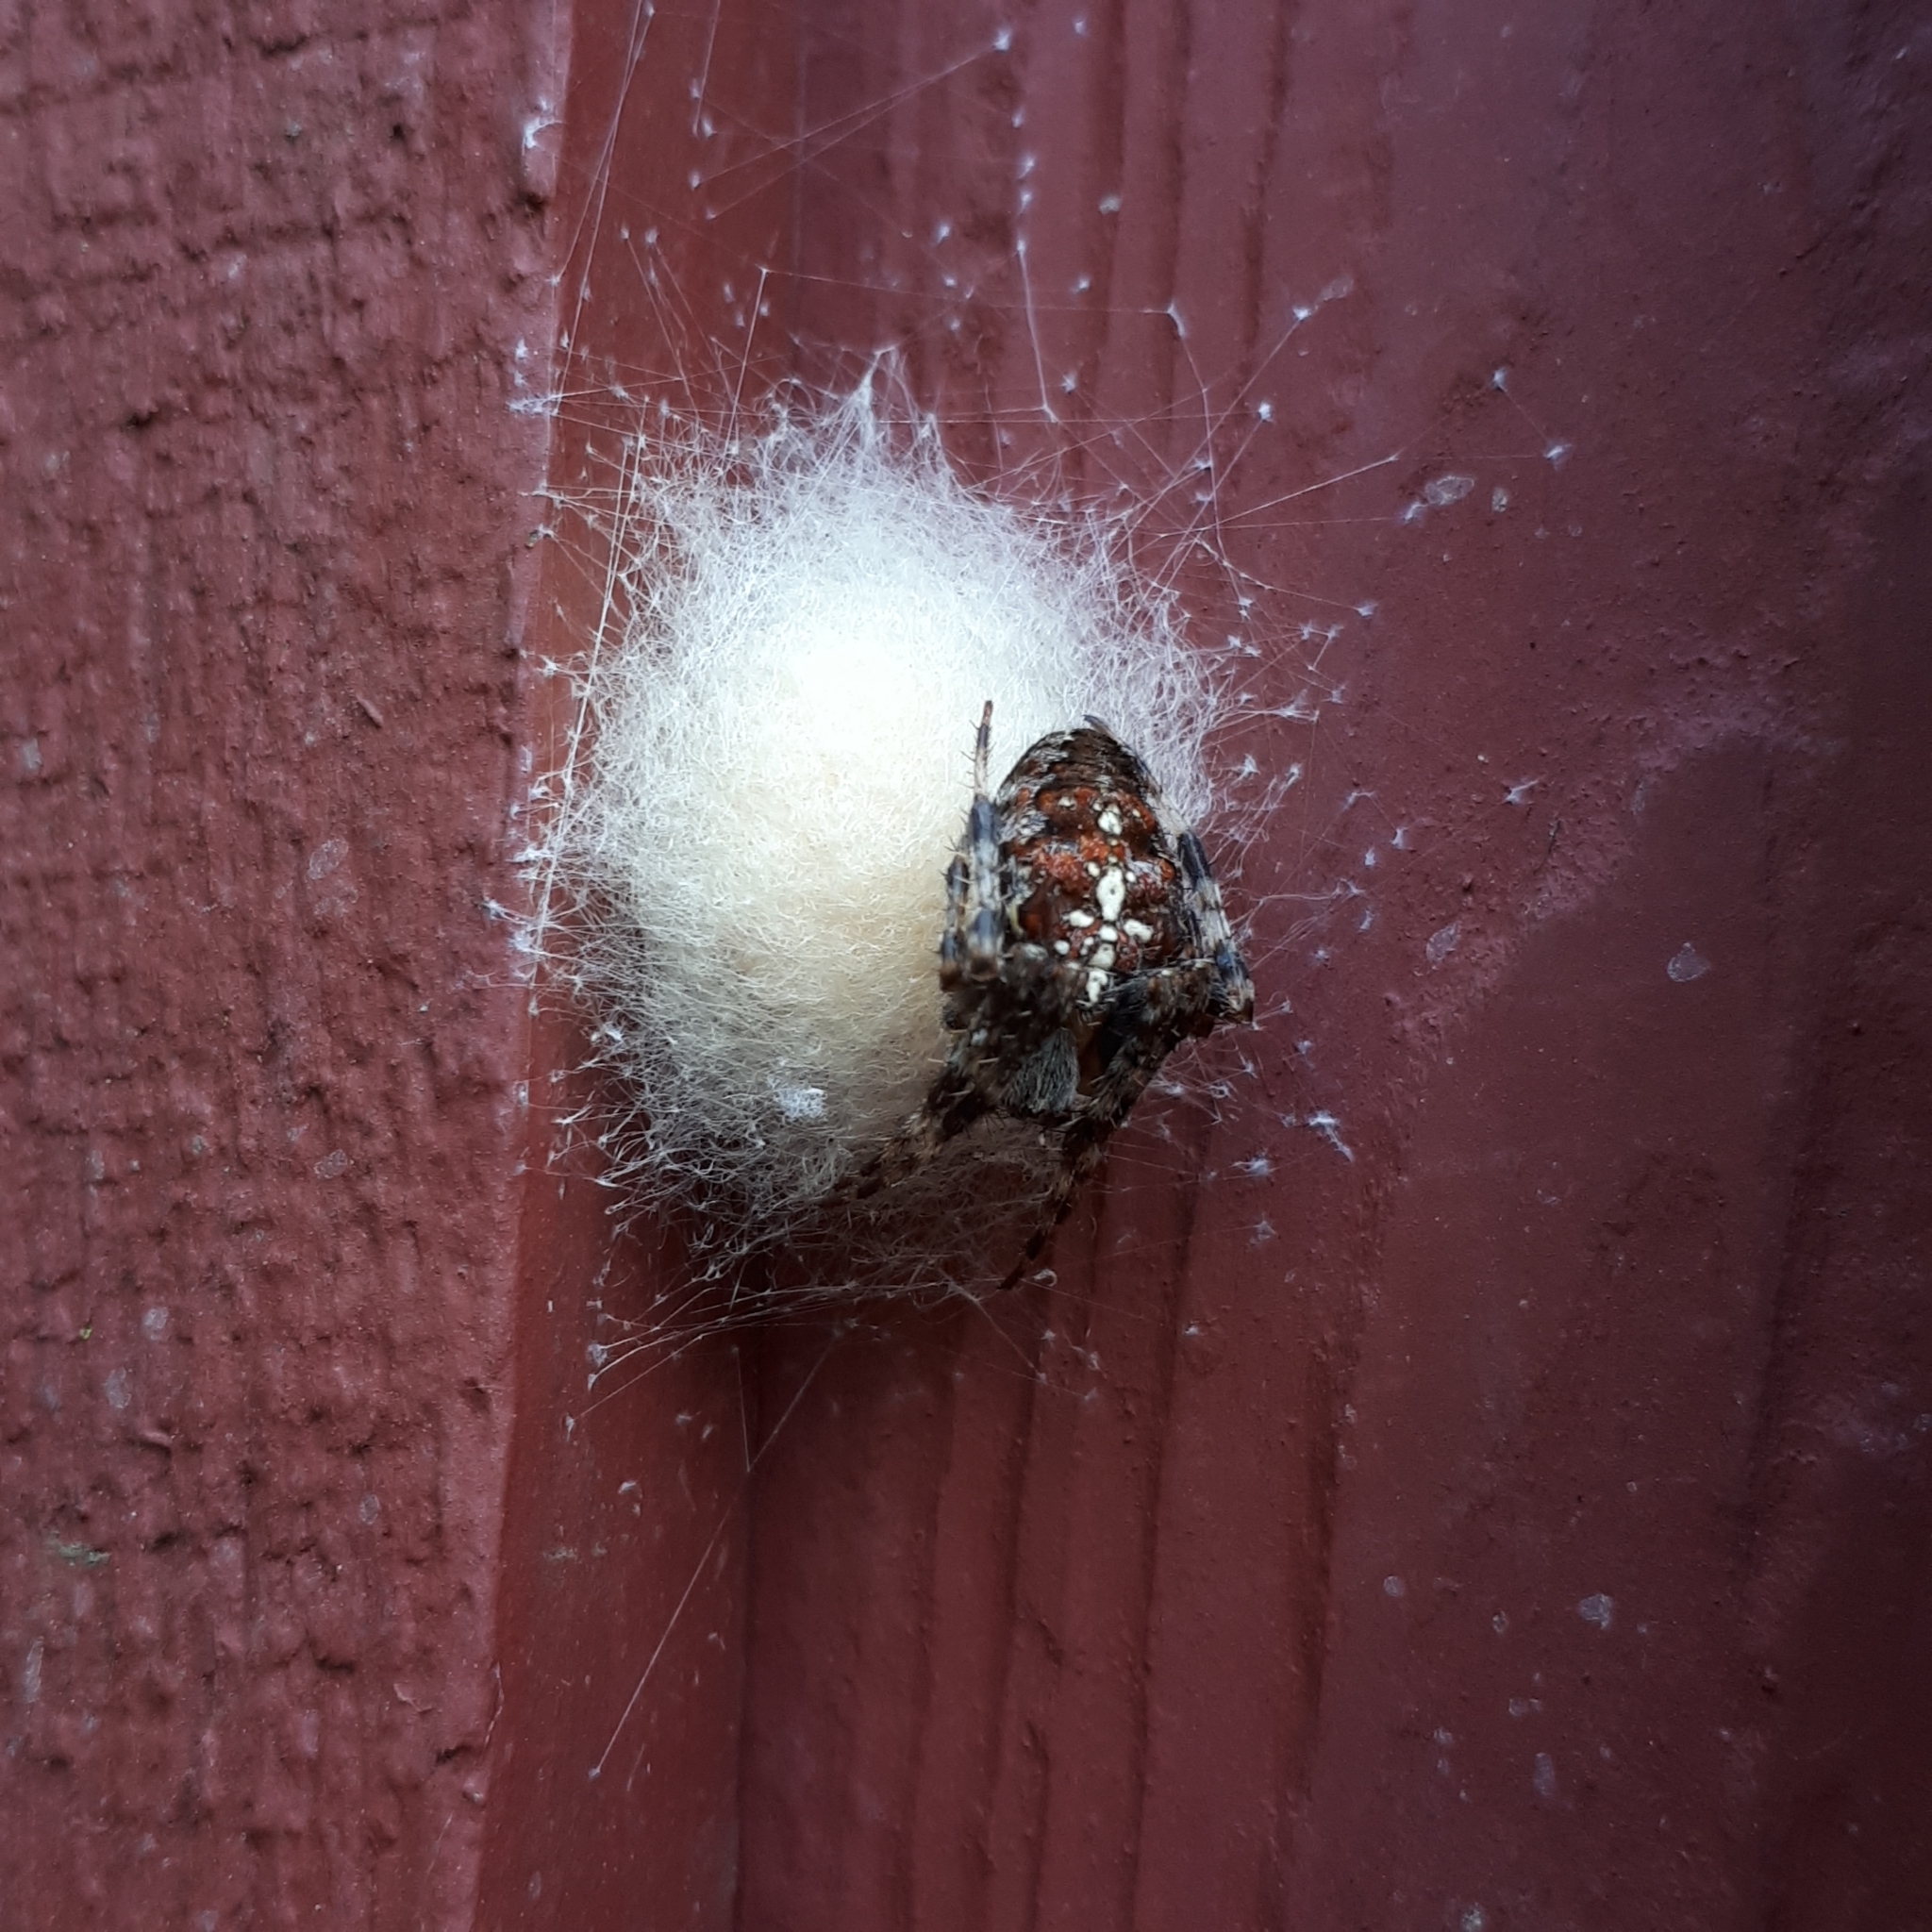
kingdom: Animalia
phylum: Arthropoda
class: Arachnida
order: Araneae
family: Araneidae
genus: Araneus
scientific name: Araneus diadematus
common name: Cross orbweaver
